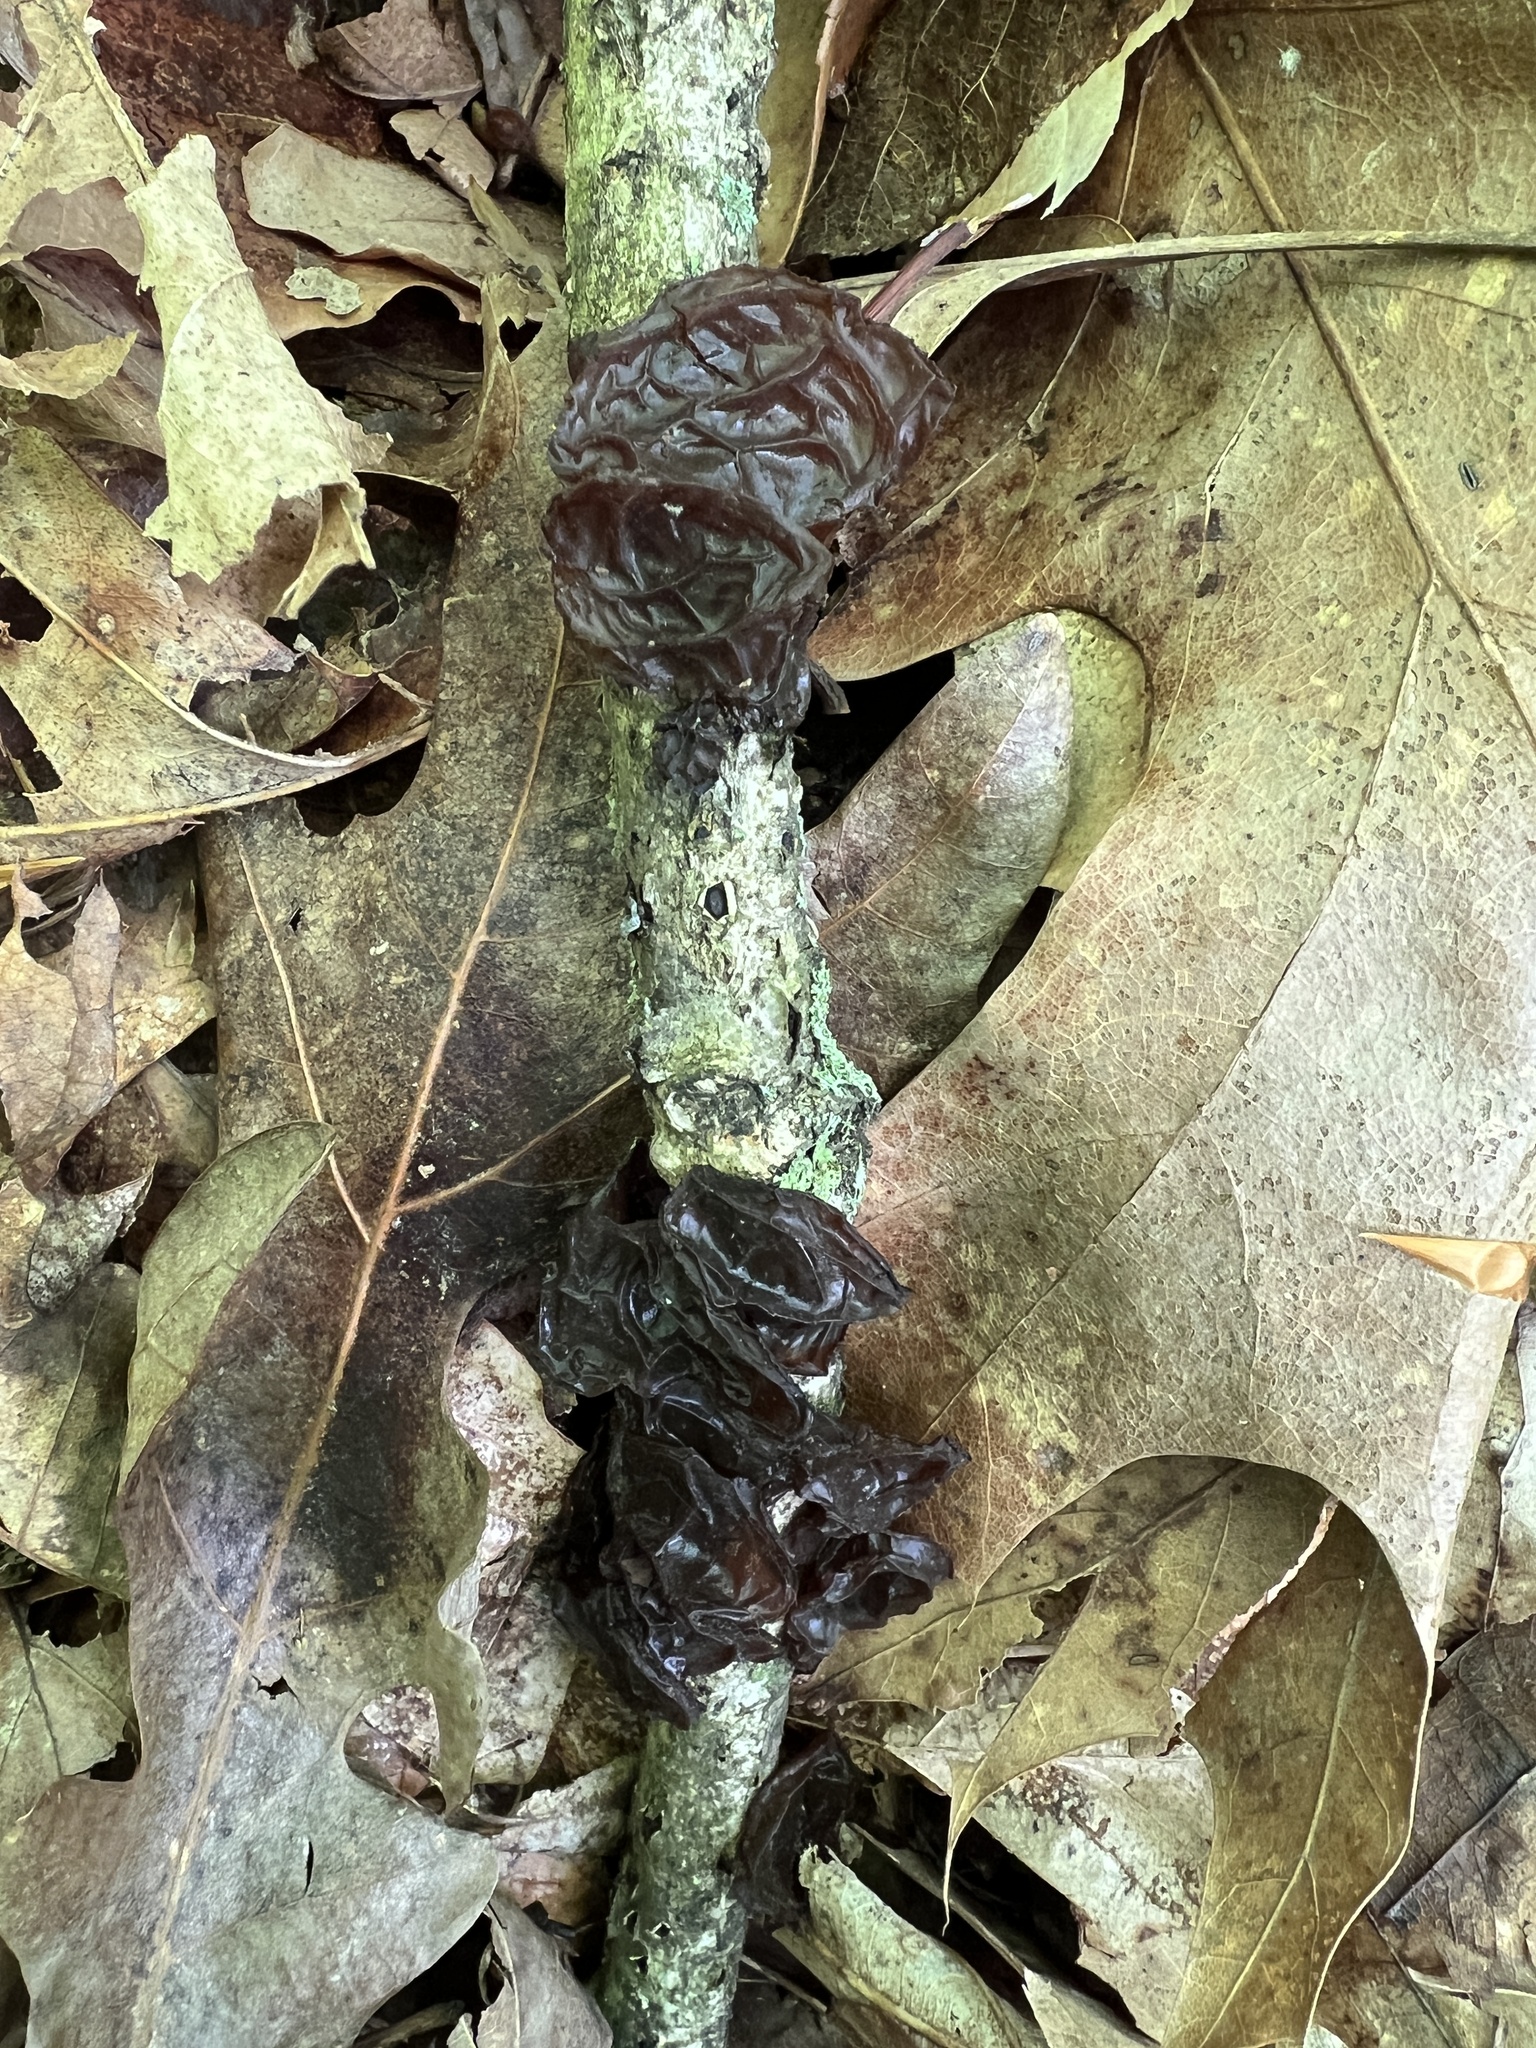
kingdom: Fungi
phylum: Basidiomycota
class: Agaricomycetes
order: Auriculariales
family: Auriculariaceae
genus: Exidia
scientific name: Exidia
